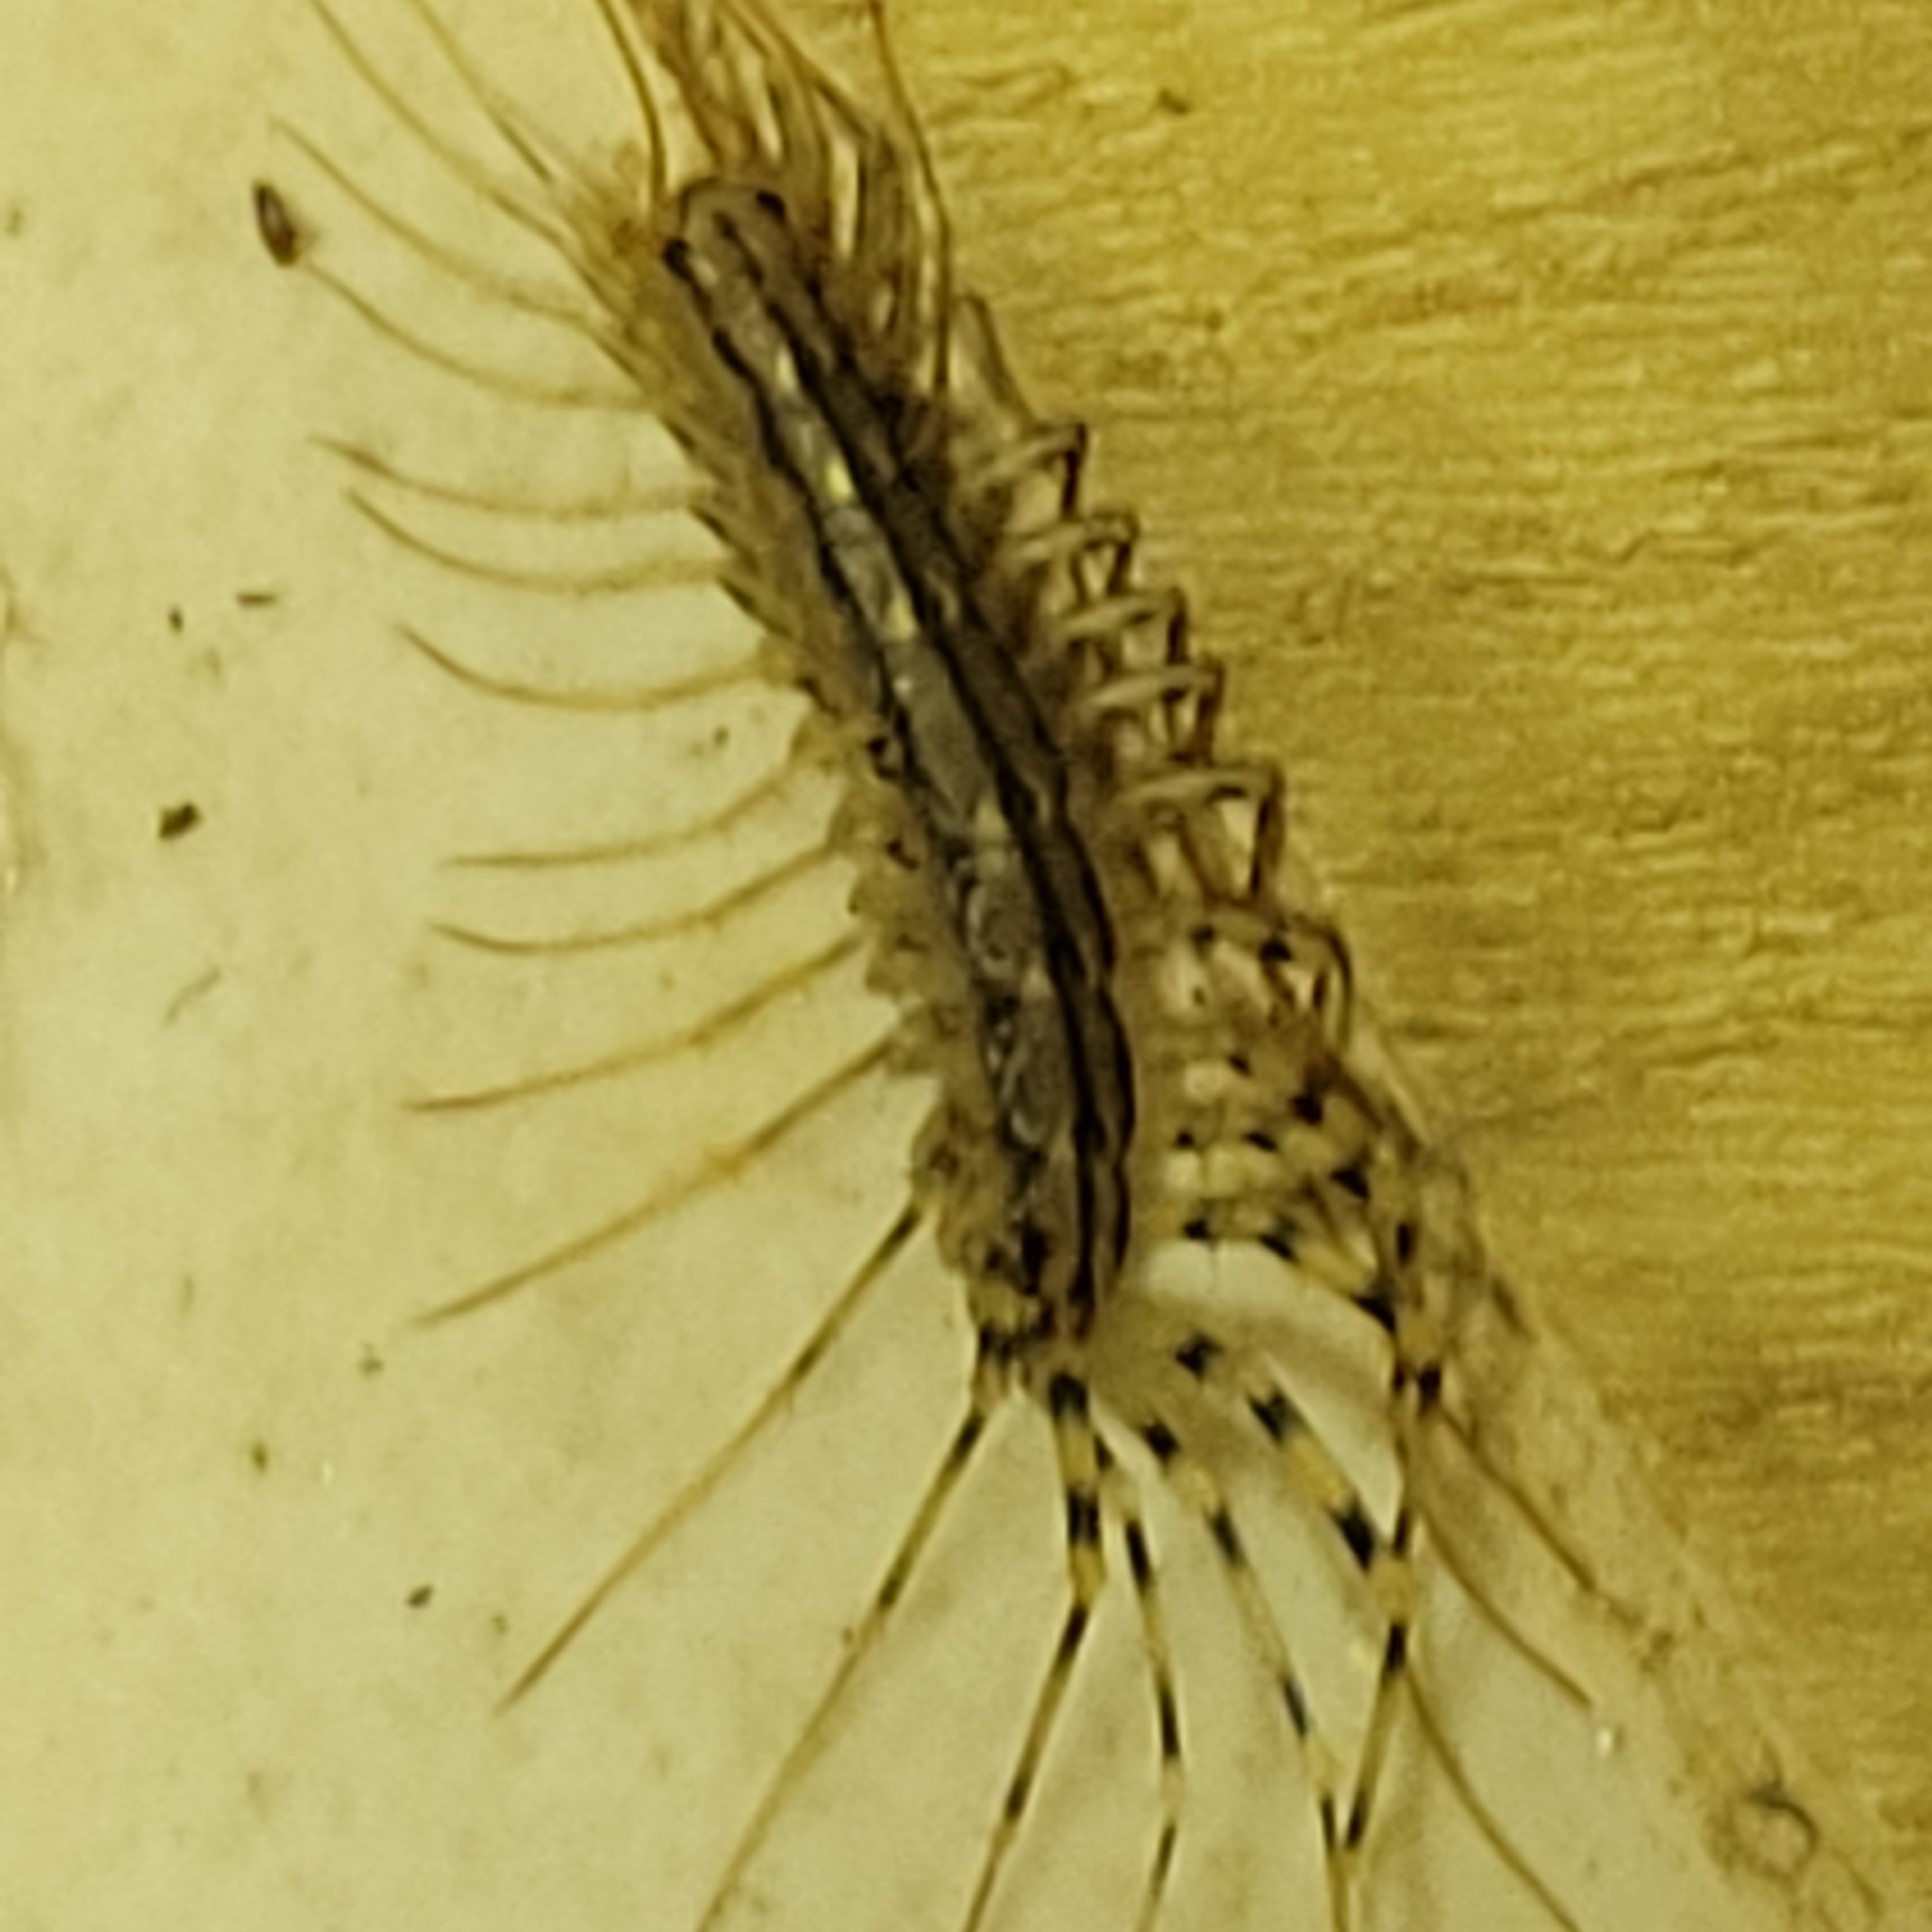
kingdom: Animalia
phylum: Arthropoda
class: Chilopoda
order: Scutigeromorpha
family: Scutigeridae
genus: Scutigera
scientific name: Scutigera coleoptrata
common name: House centipede
